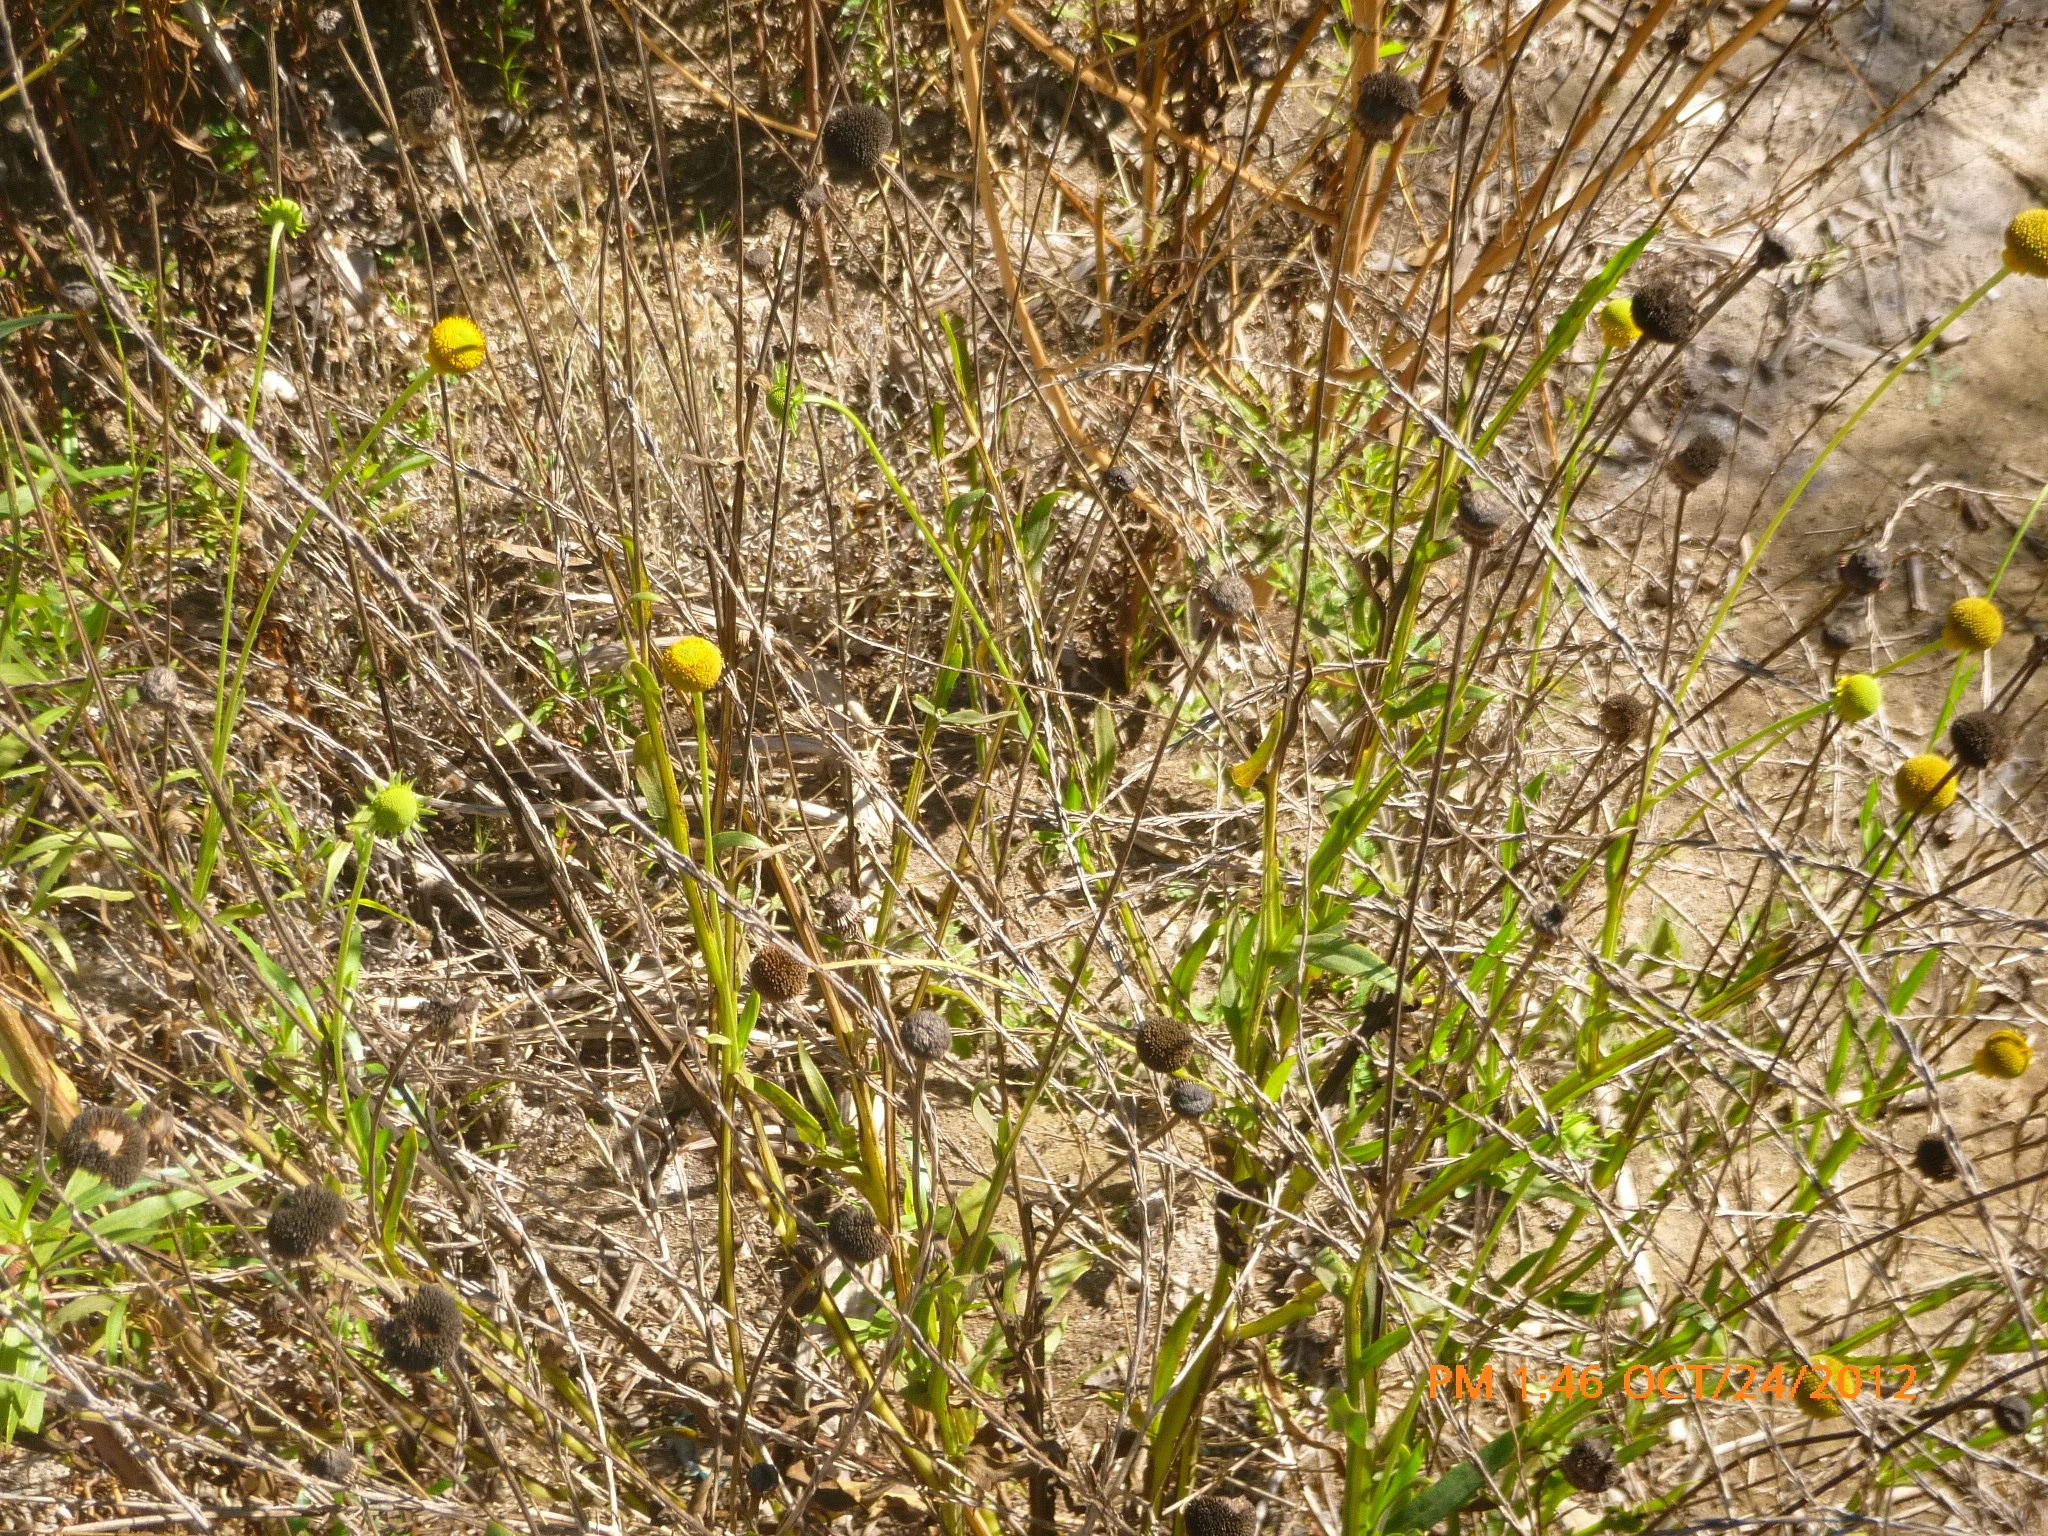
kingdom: Plantae
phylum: Tracheophyta
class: Magnoliopsida
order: Asterales
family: Asteraceae
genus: Helenium
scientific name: Helenium puberulum
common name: Sneezewort
